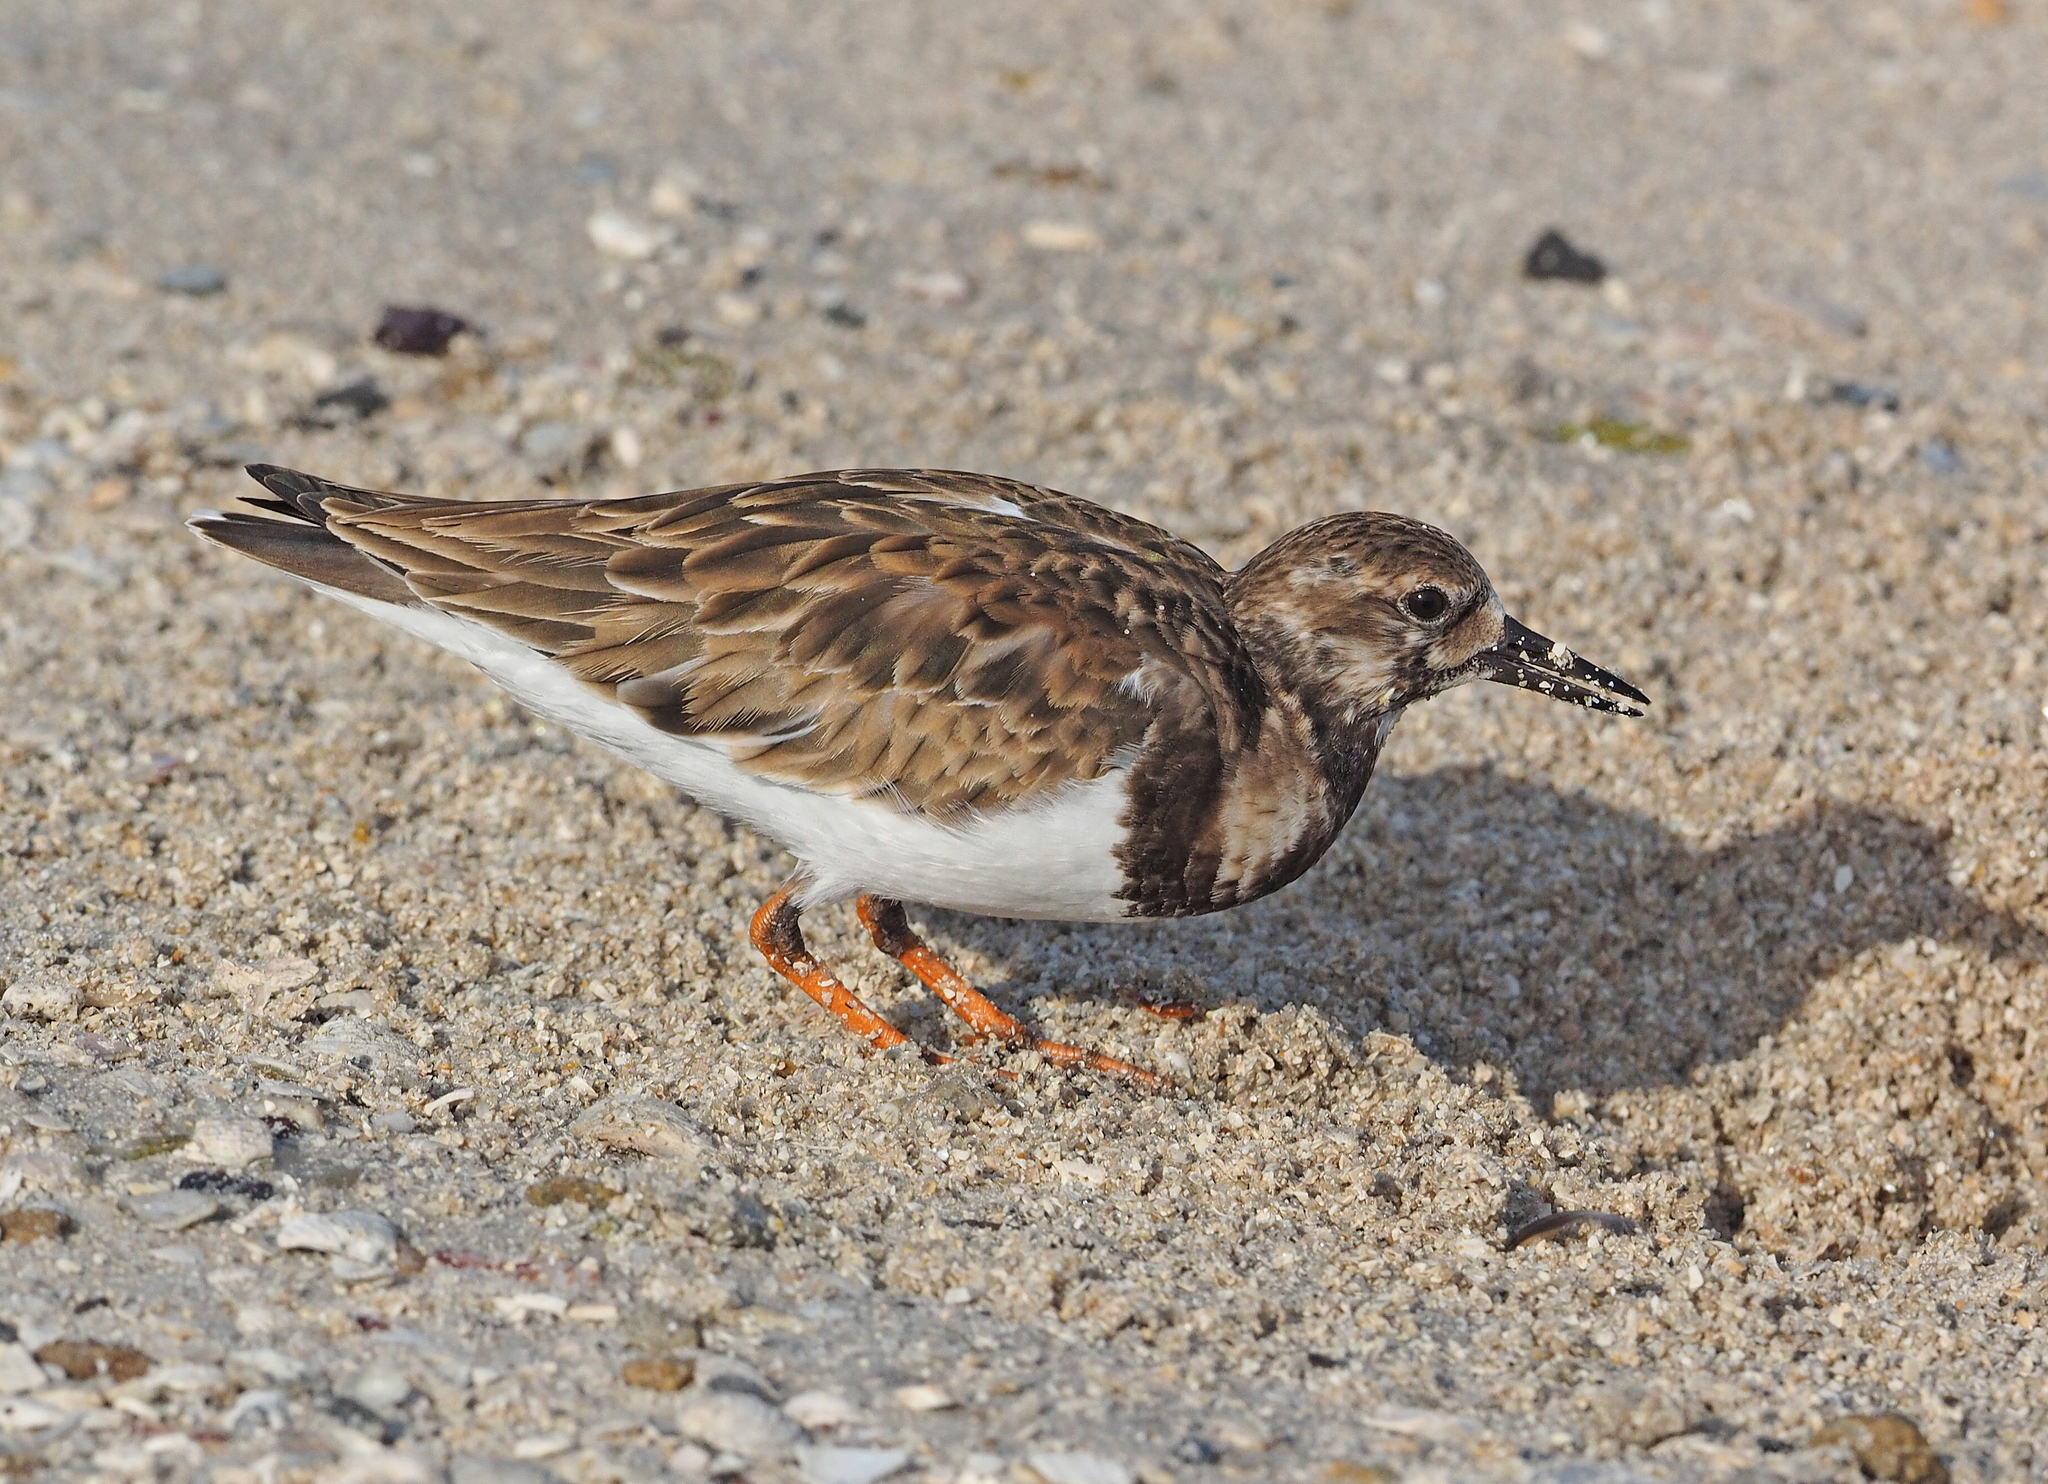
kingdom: Animalia
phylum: Chordata
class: Aves
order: Charadriiformes
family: Scolopacidae
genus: Arenaria
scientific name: Arenaria interpres
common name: Ruddy turnstone
